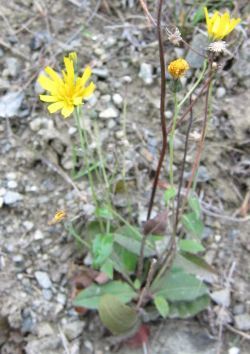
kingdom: Plantae
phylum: Tracheophyta
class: Magnoliopsida
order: Asterales
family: Asteraceae
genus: Hieracium
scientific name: Hieracium lepidulum
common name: Irregular-toothed hawkweed
